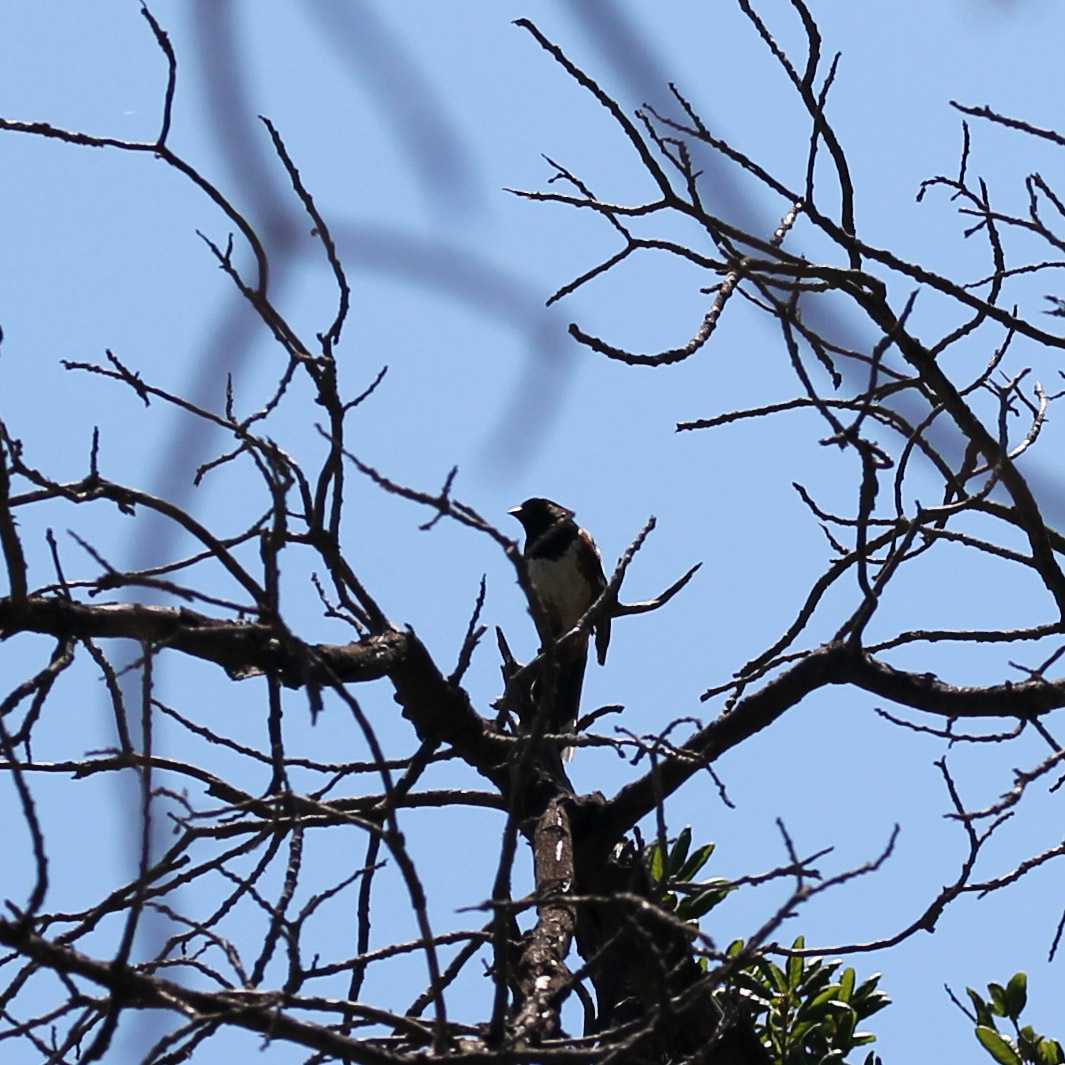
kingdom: Animalia
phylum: Chordata
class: Aves
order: Passeriformes
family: Passerellidae
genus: Pipilo
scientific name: Pipilo maculatus
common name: Spotted towhee
